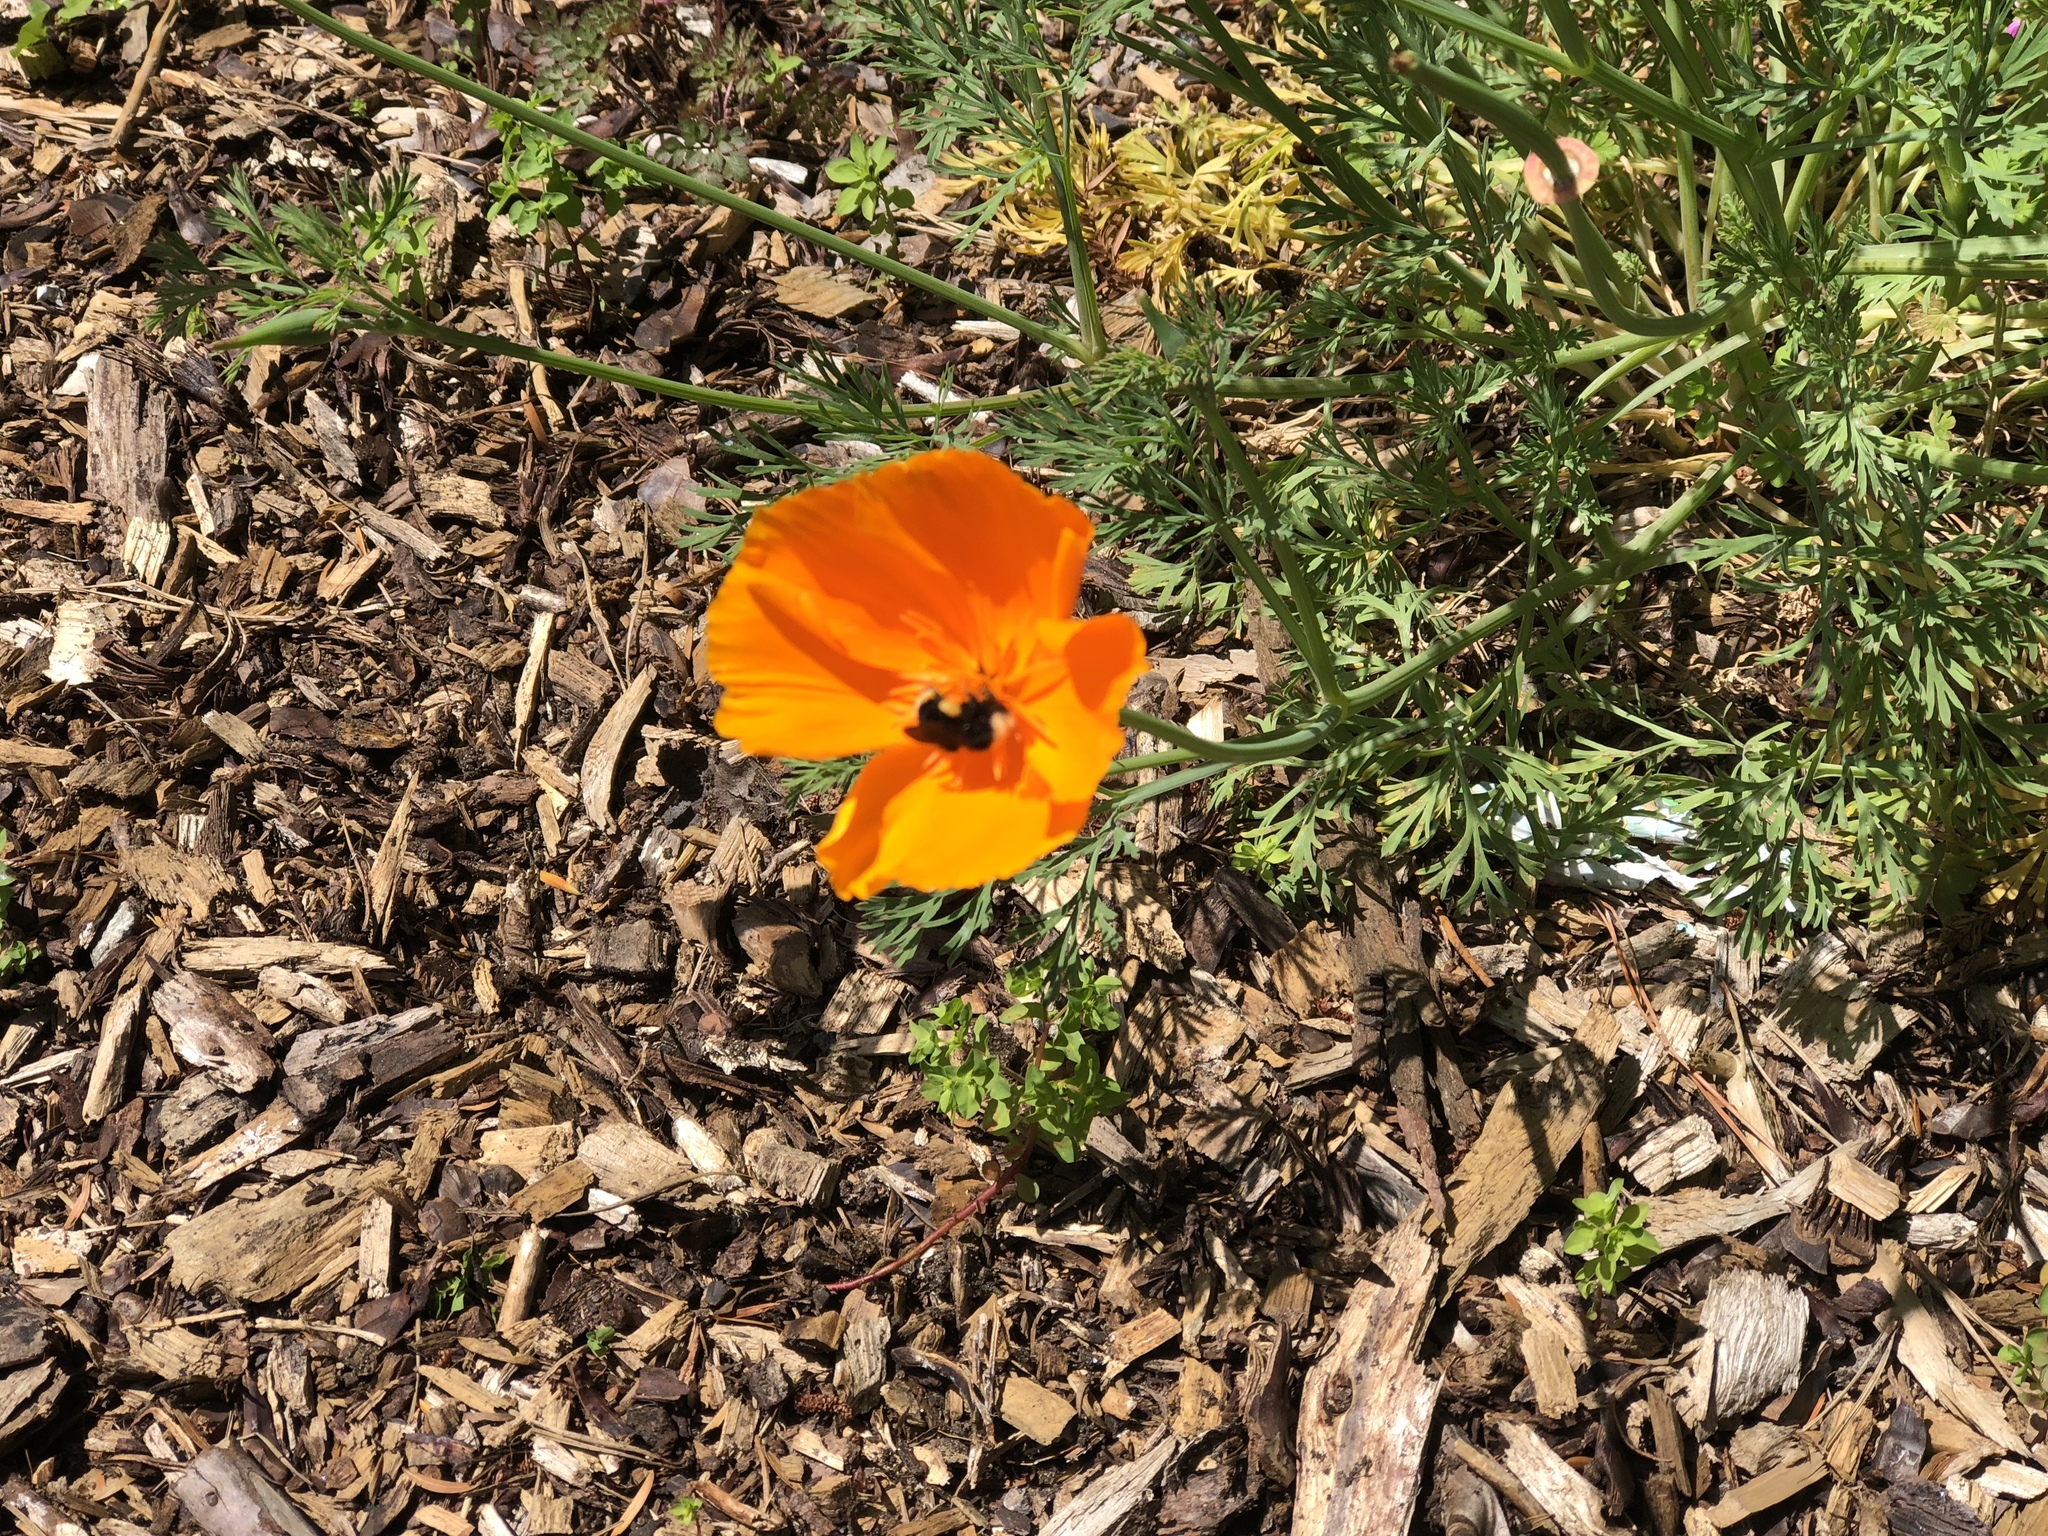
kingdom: Animalia
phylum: Arthropoda
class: Insecta
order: Hymenoptera
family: Apidae
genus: Pyrobombus
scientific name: Pyrobombus
